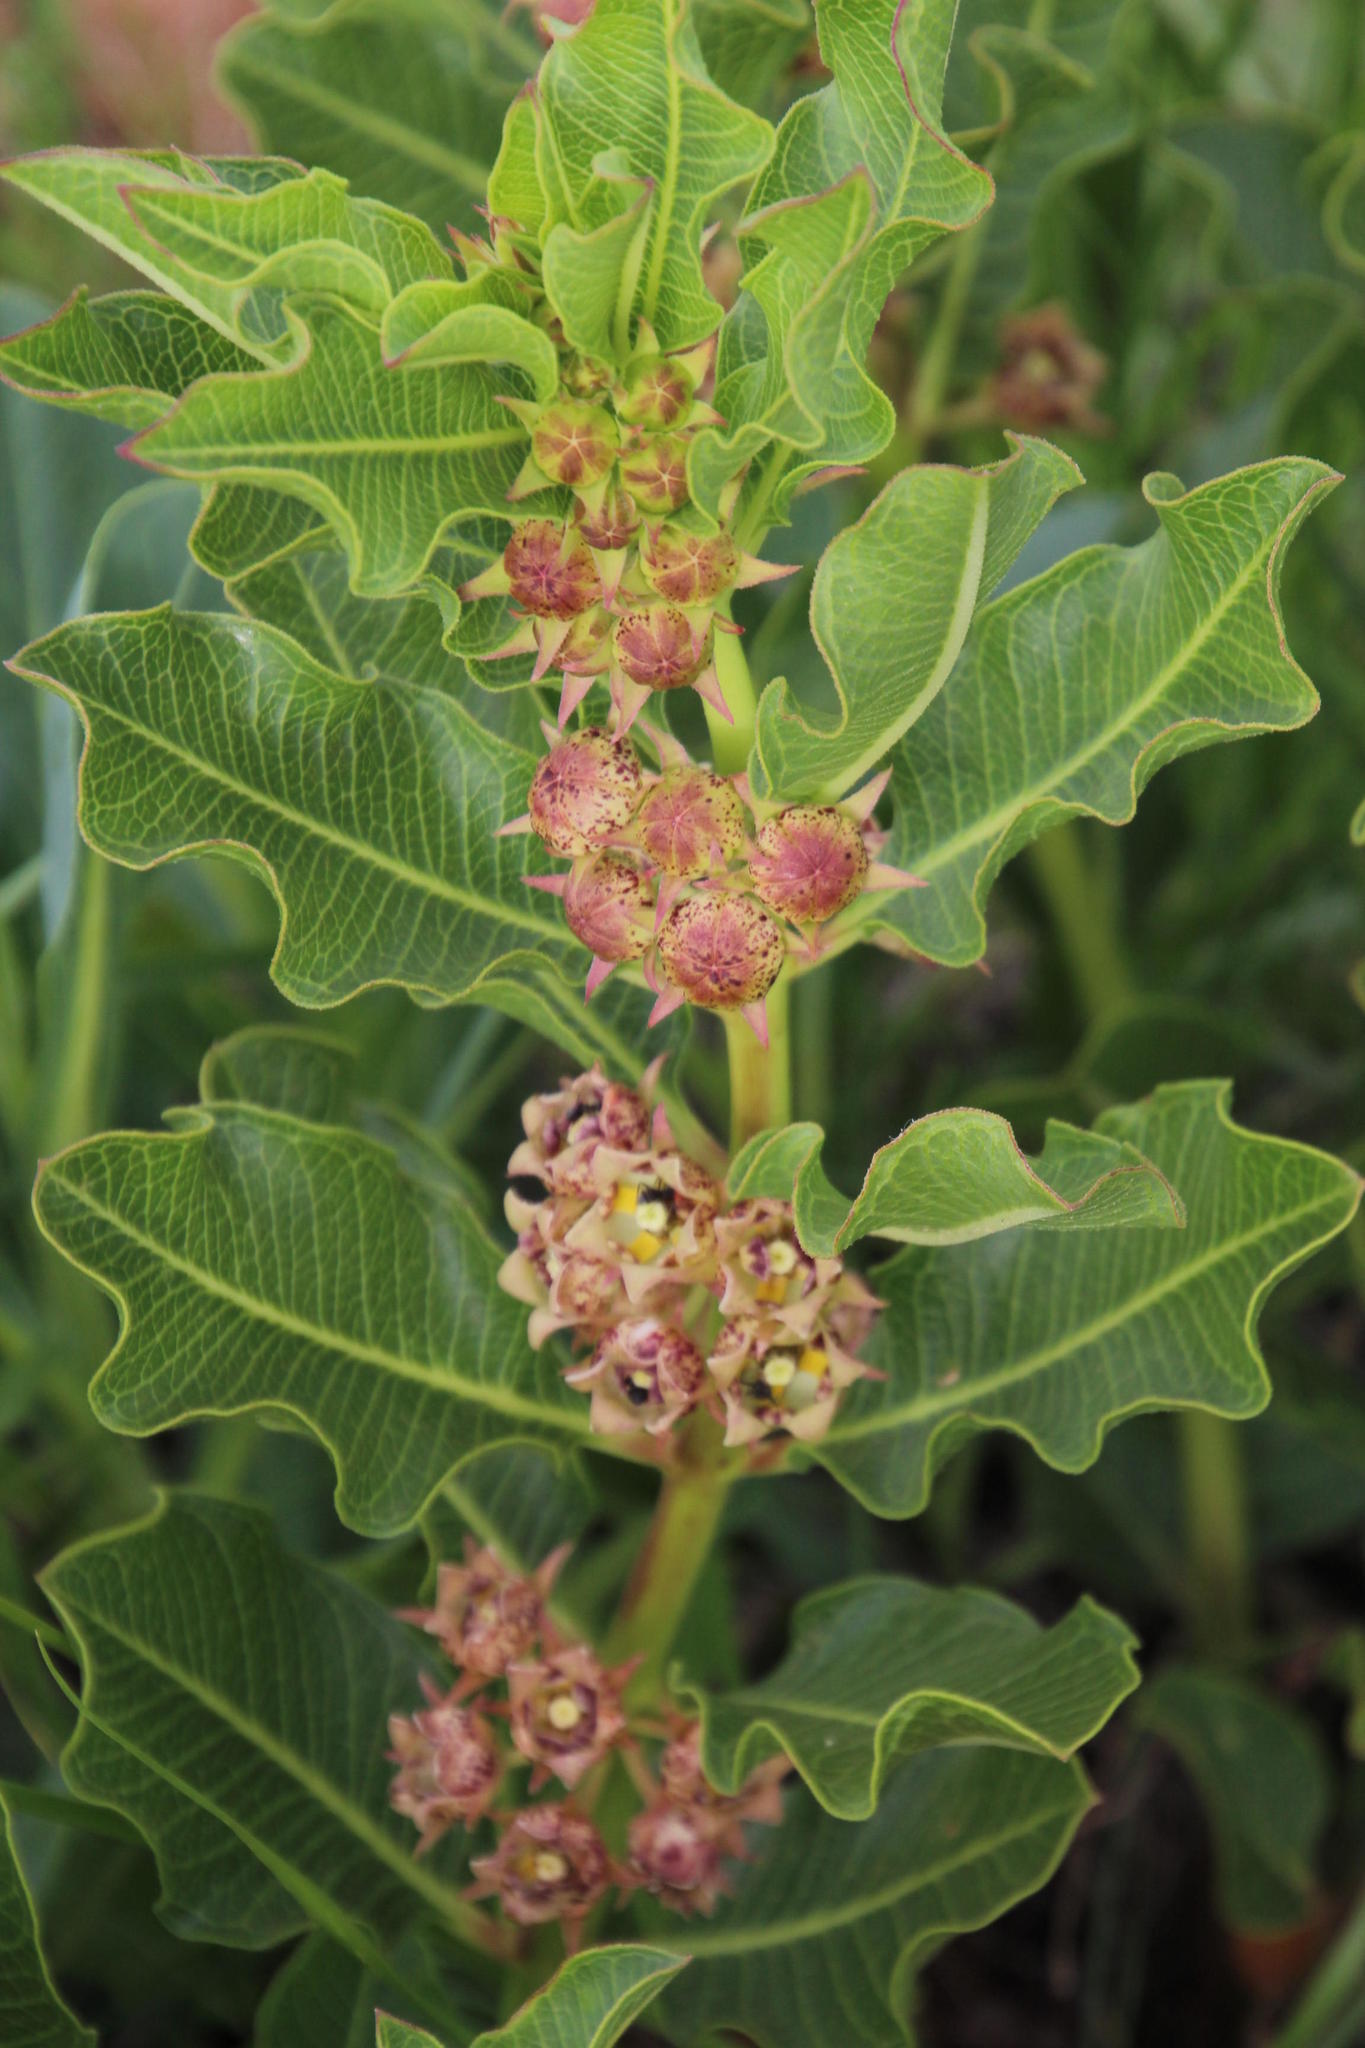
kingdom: Plantae
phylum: Tracheophyta
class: Magnoliopsida
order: Gentianales
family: Apocynaceae
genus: Pachycarpus
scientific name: Pachycarpus dealbatus
